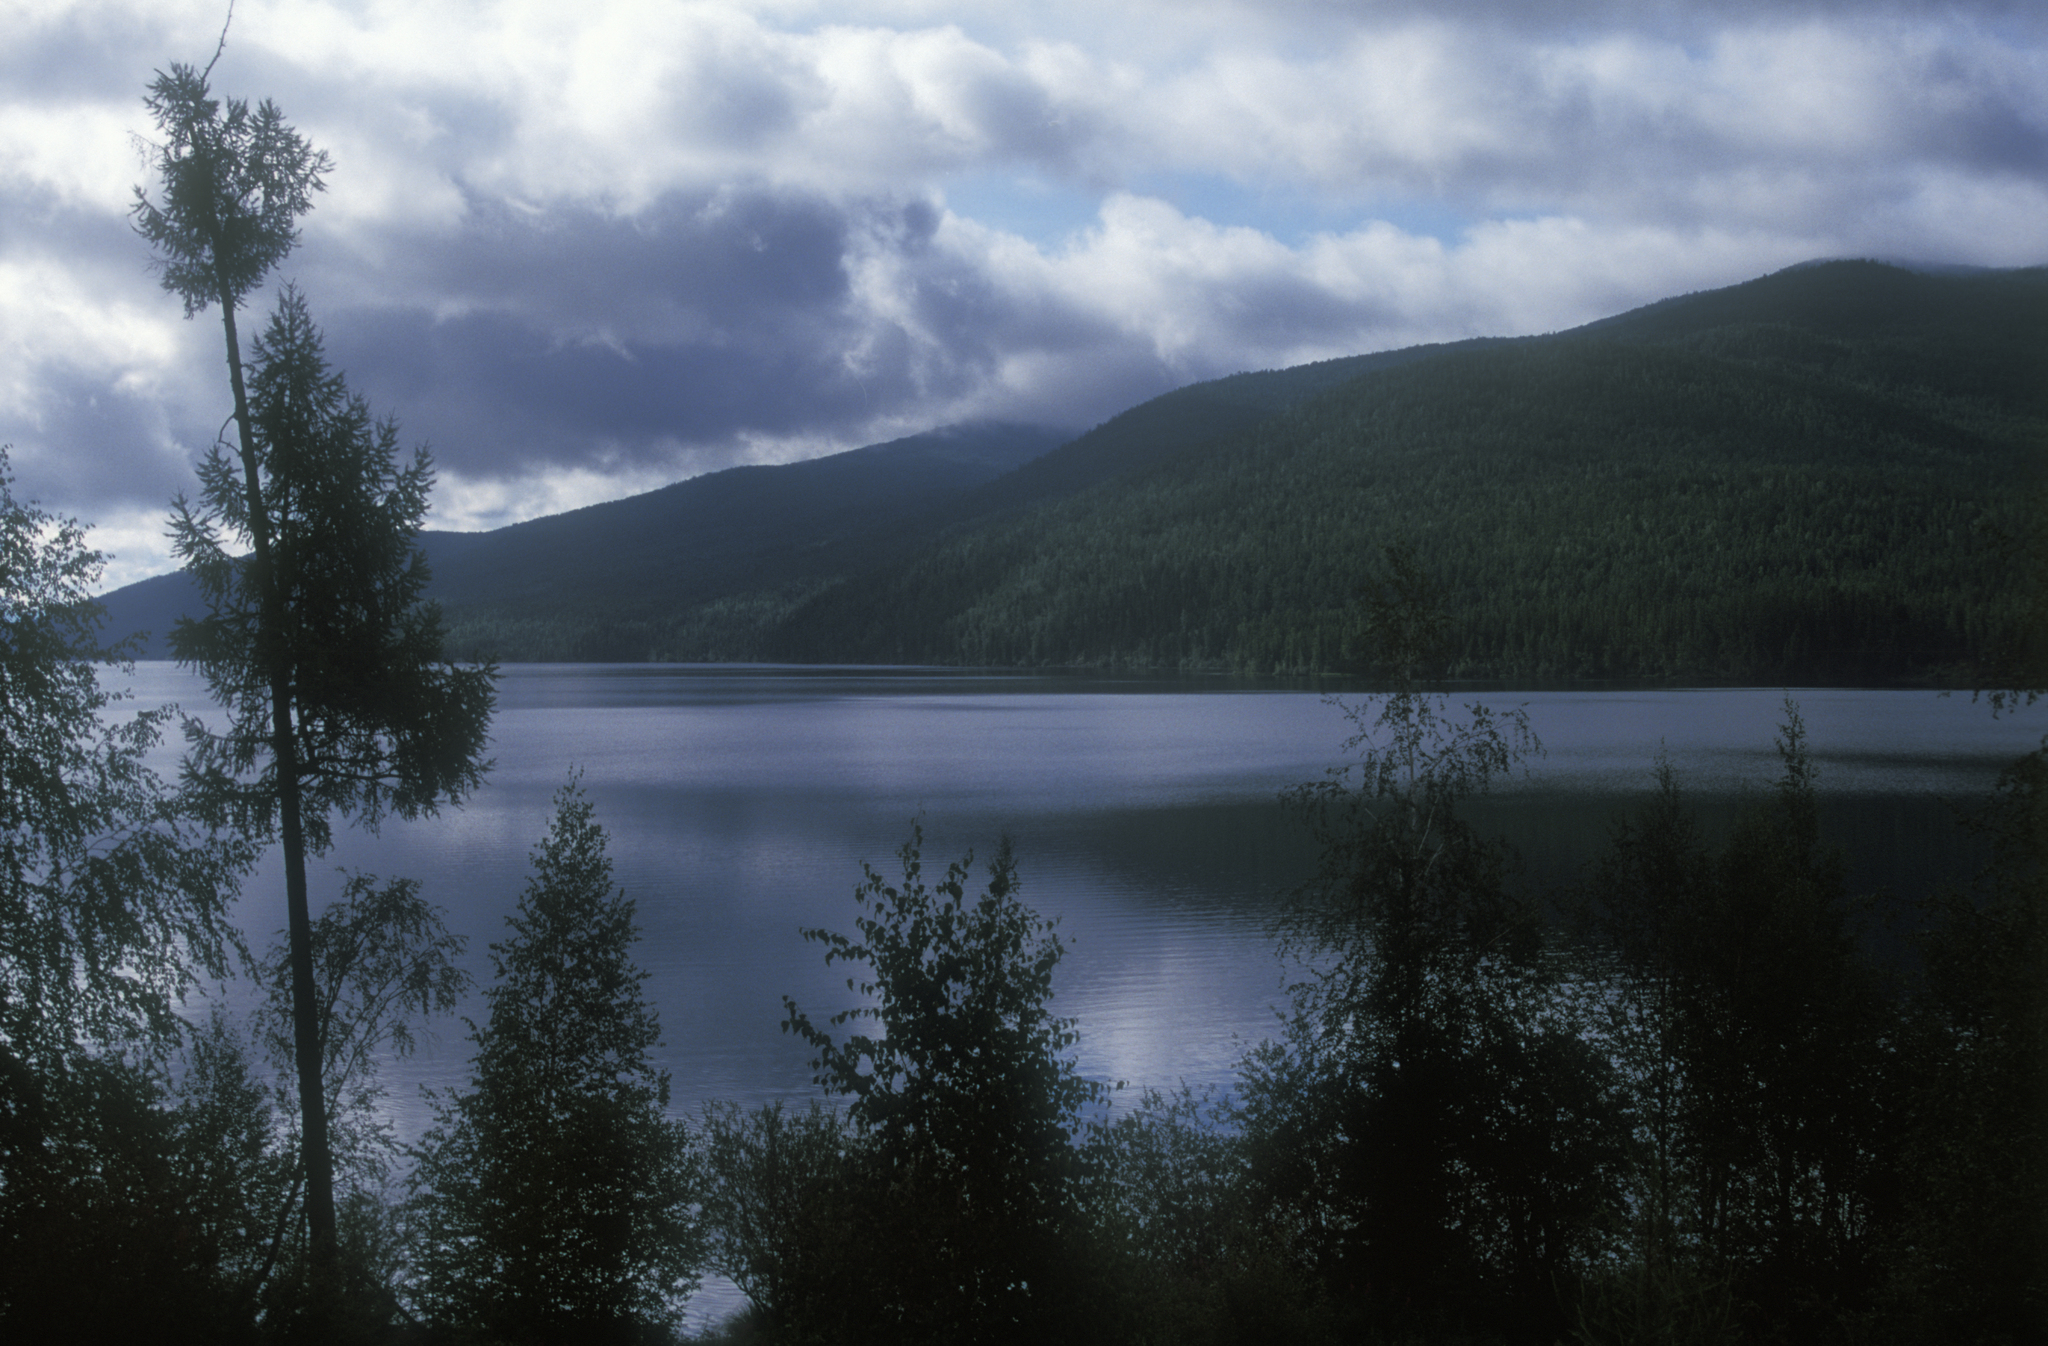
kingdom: Plantae
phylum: Tracheophyta
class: Pinopsida
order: Pinales
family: Pinaceae
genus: Larix
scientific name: Larix sibirica
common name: Siberian larch
